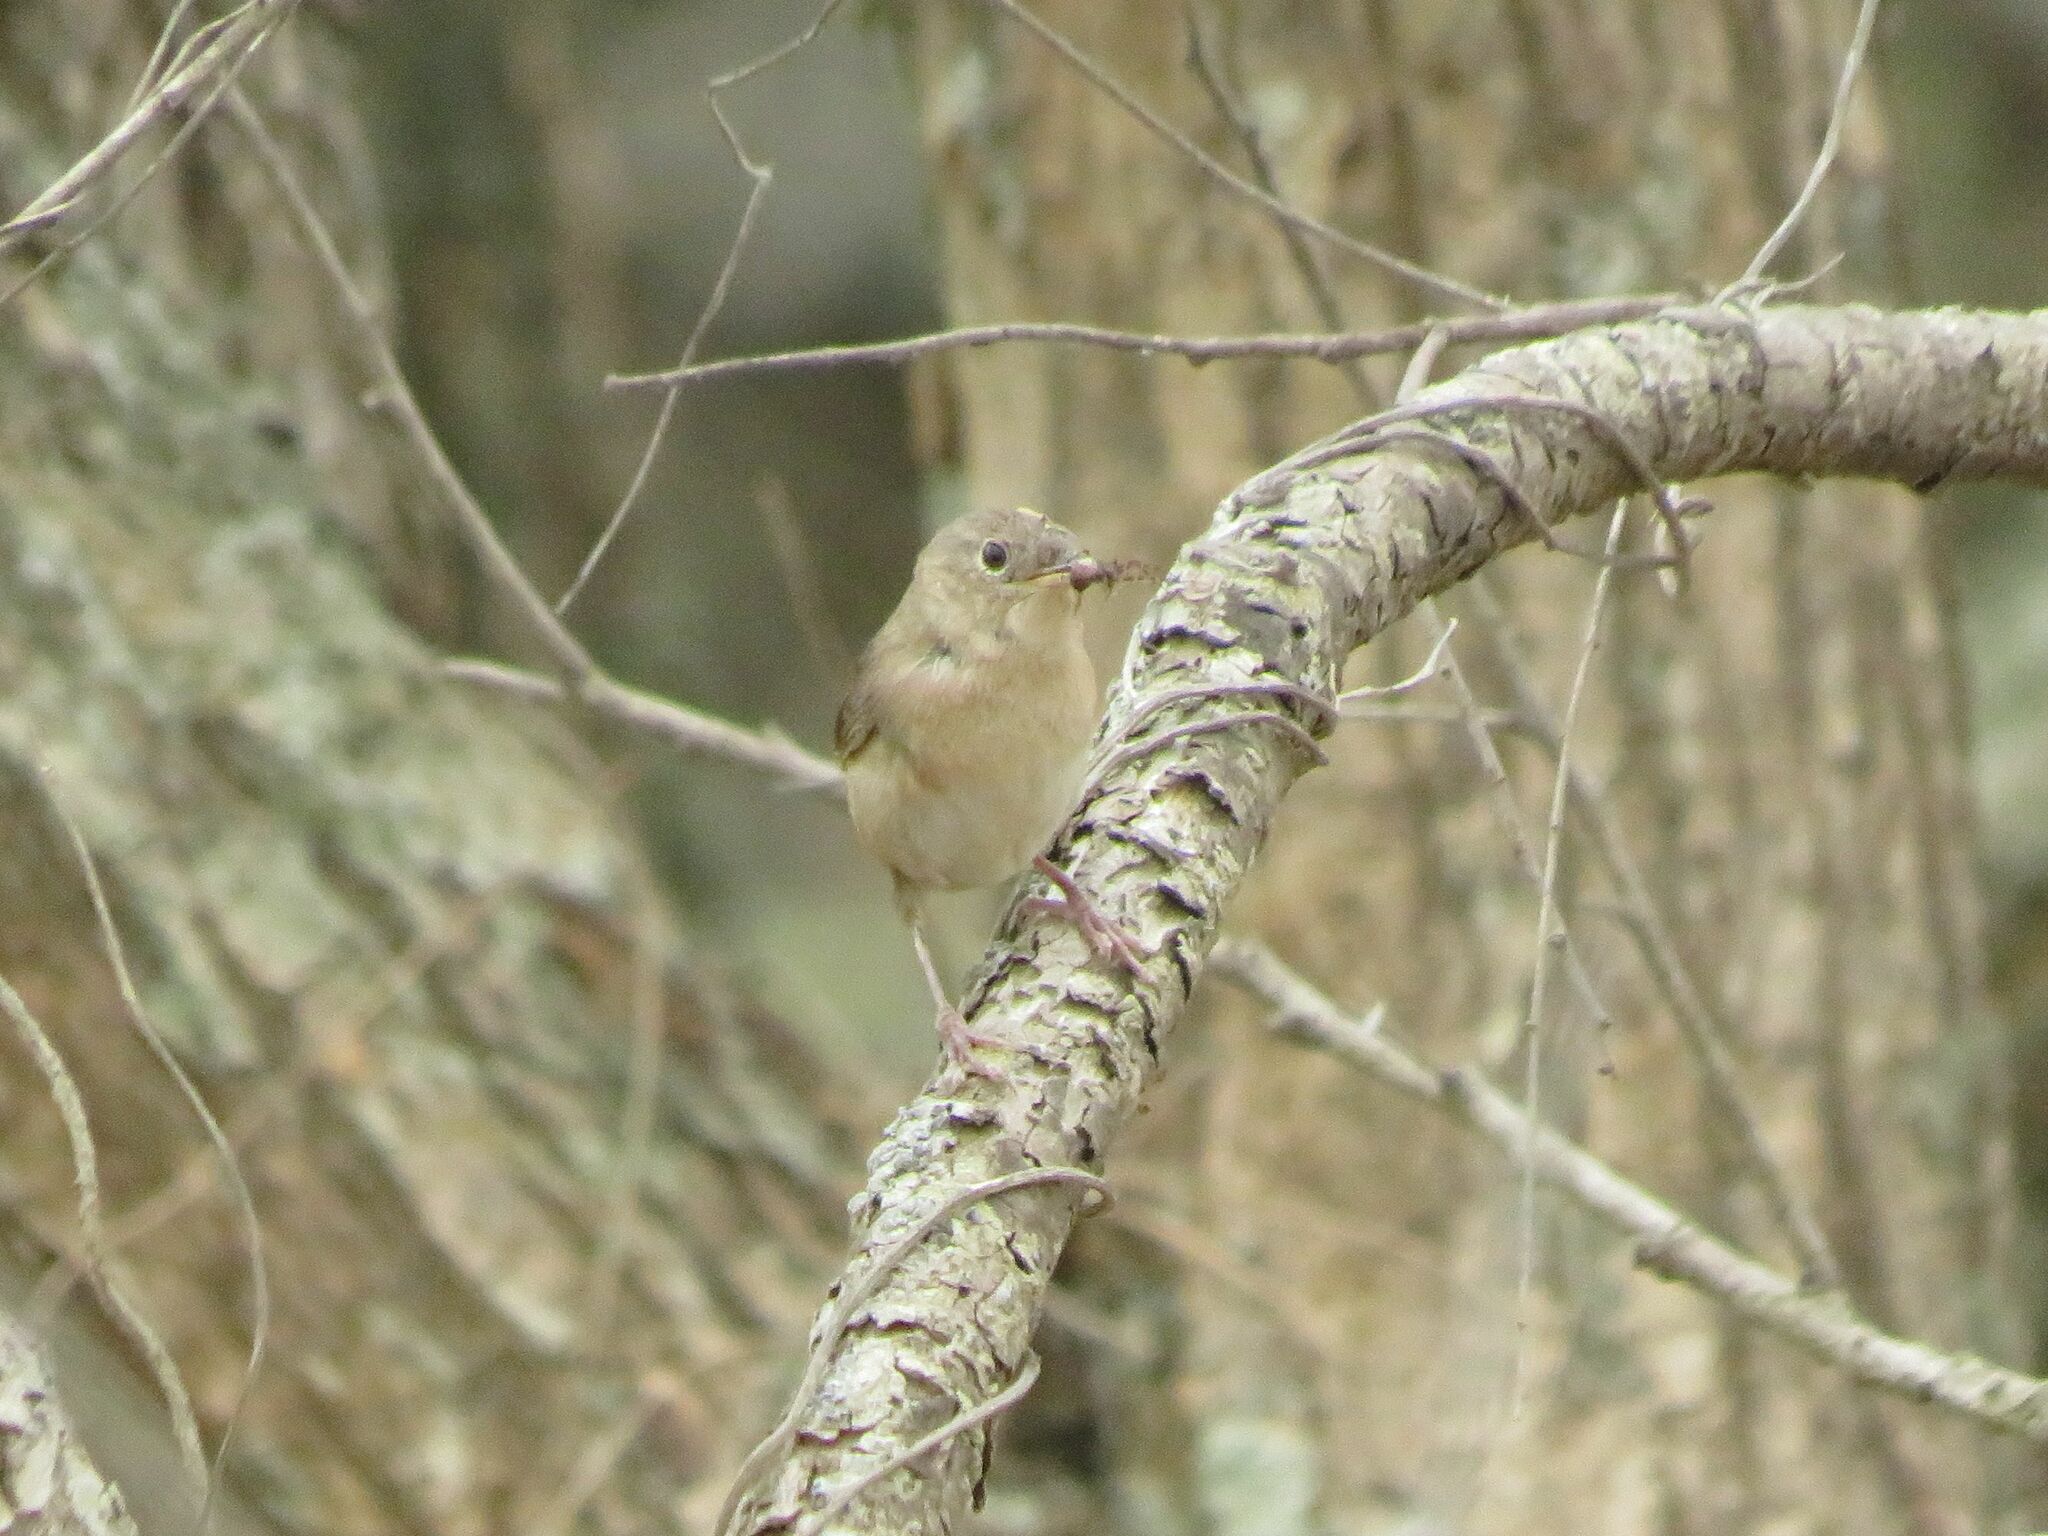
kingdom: Animalia
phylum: Chordata
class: Aves
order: Passeriformes
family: Troglodytidae
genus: Troglodytes
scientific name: Troglodytes aedon
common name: House wren
